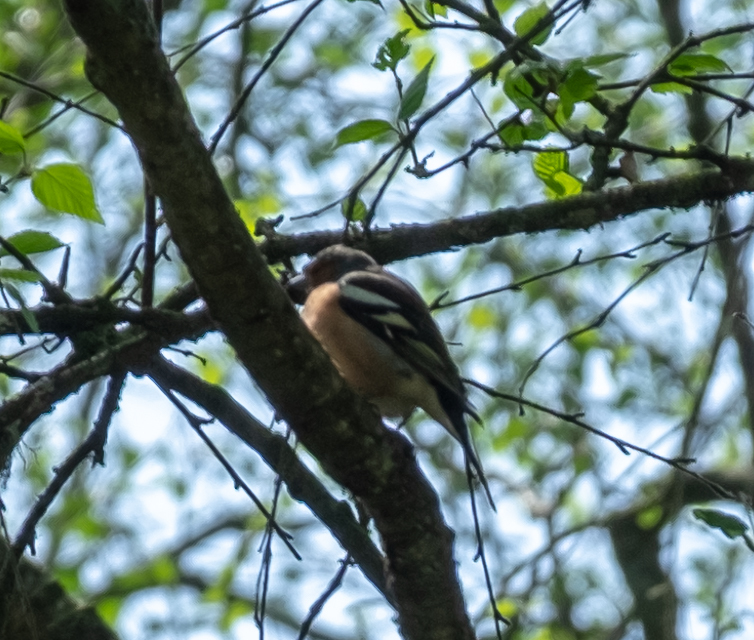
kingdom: Animalia
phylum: Chordata
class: Aves
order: Passeriformes
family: Fringillidae
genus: Fringilla
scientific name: Fringilla coelebs
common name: Common chaffinch
